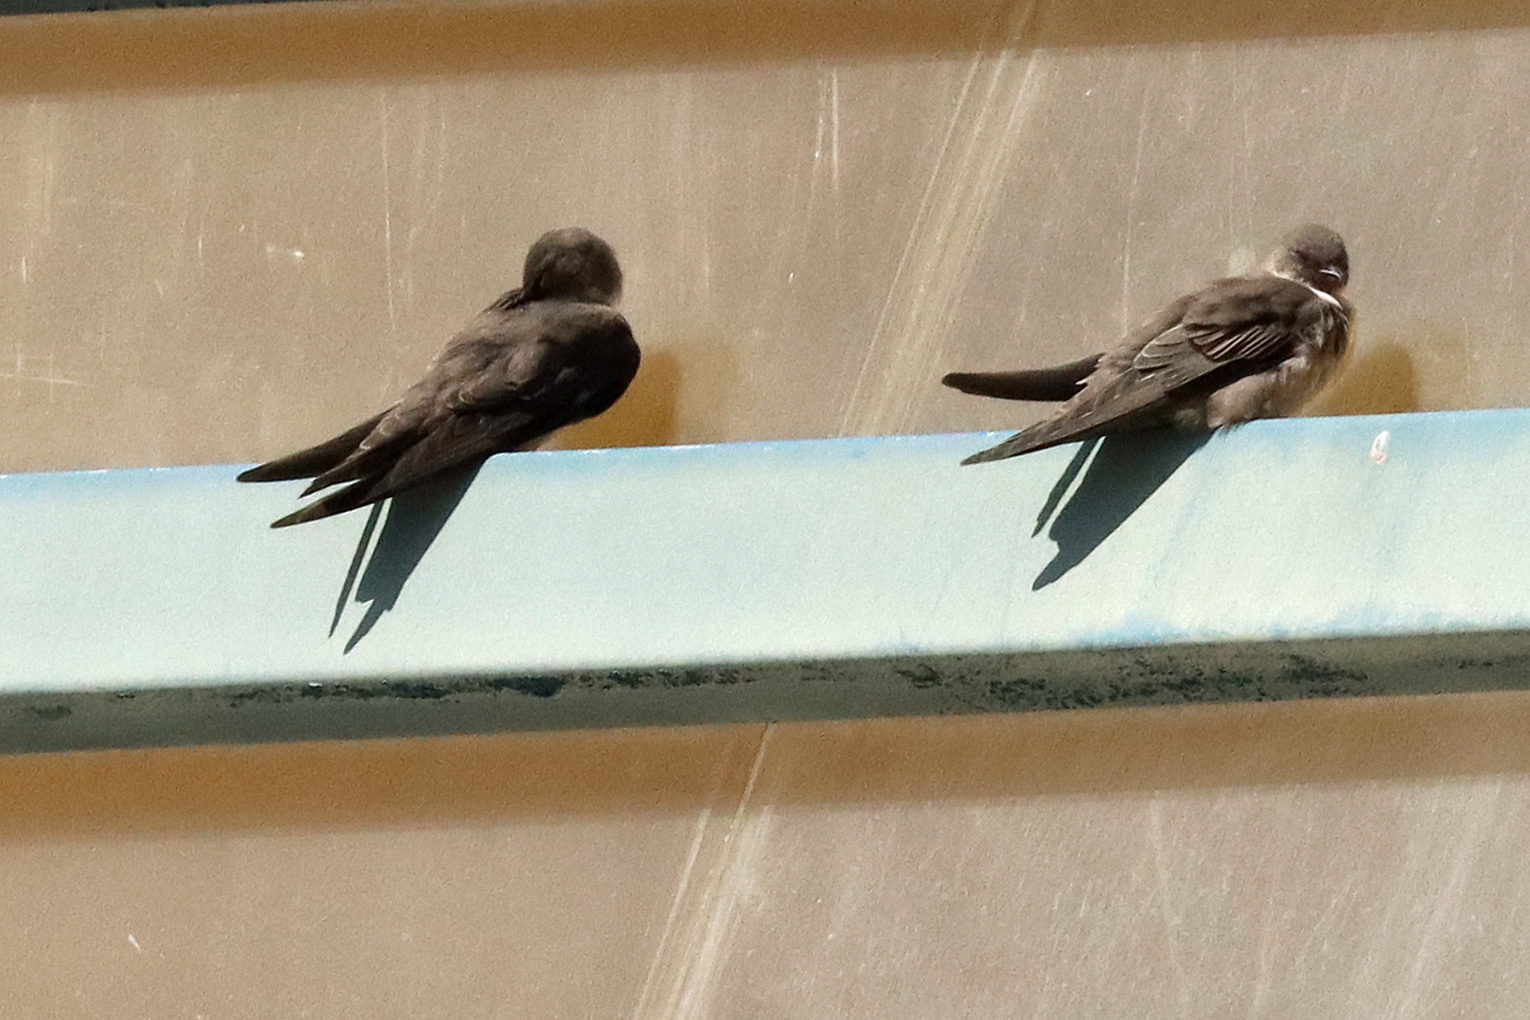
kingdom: Animalia
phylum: Chordata
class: Aves
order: Passeriformes
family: Hirundinidae
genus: Ptyonoprogne
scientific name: Ptyonoprogne rupestris
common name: Eurasian crag martin
